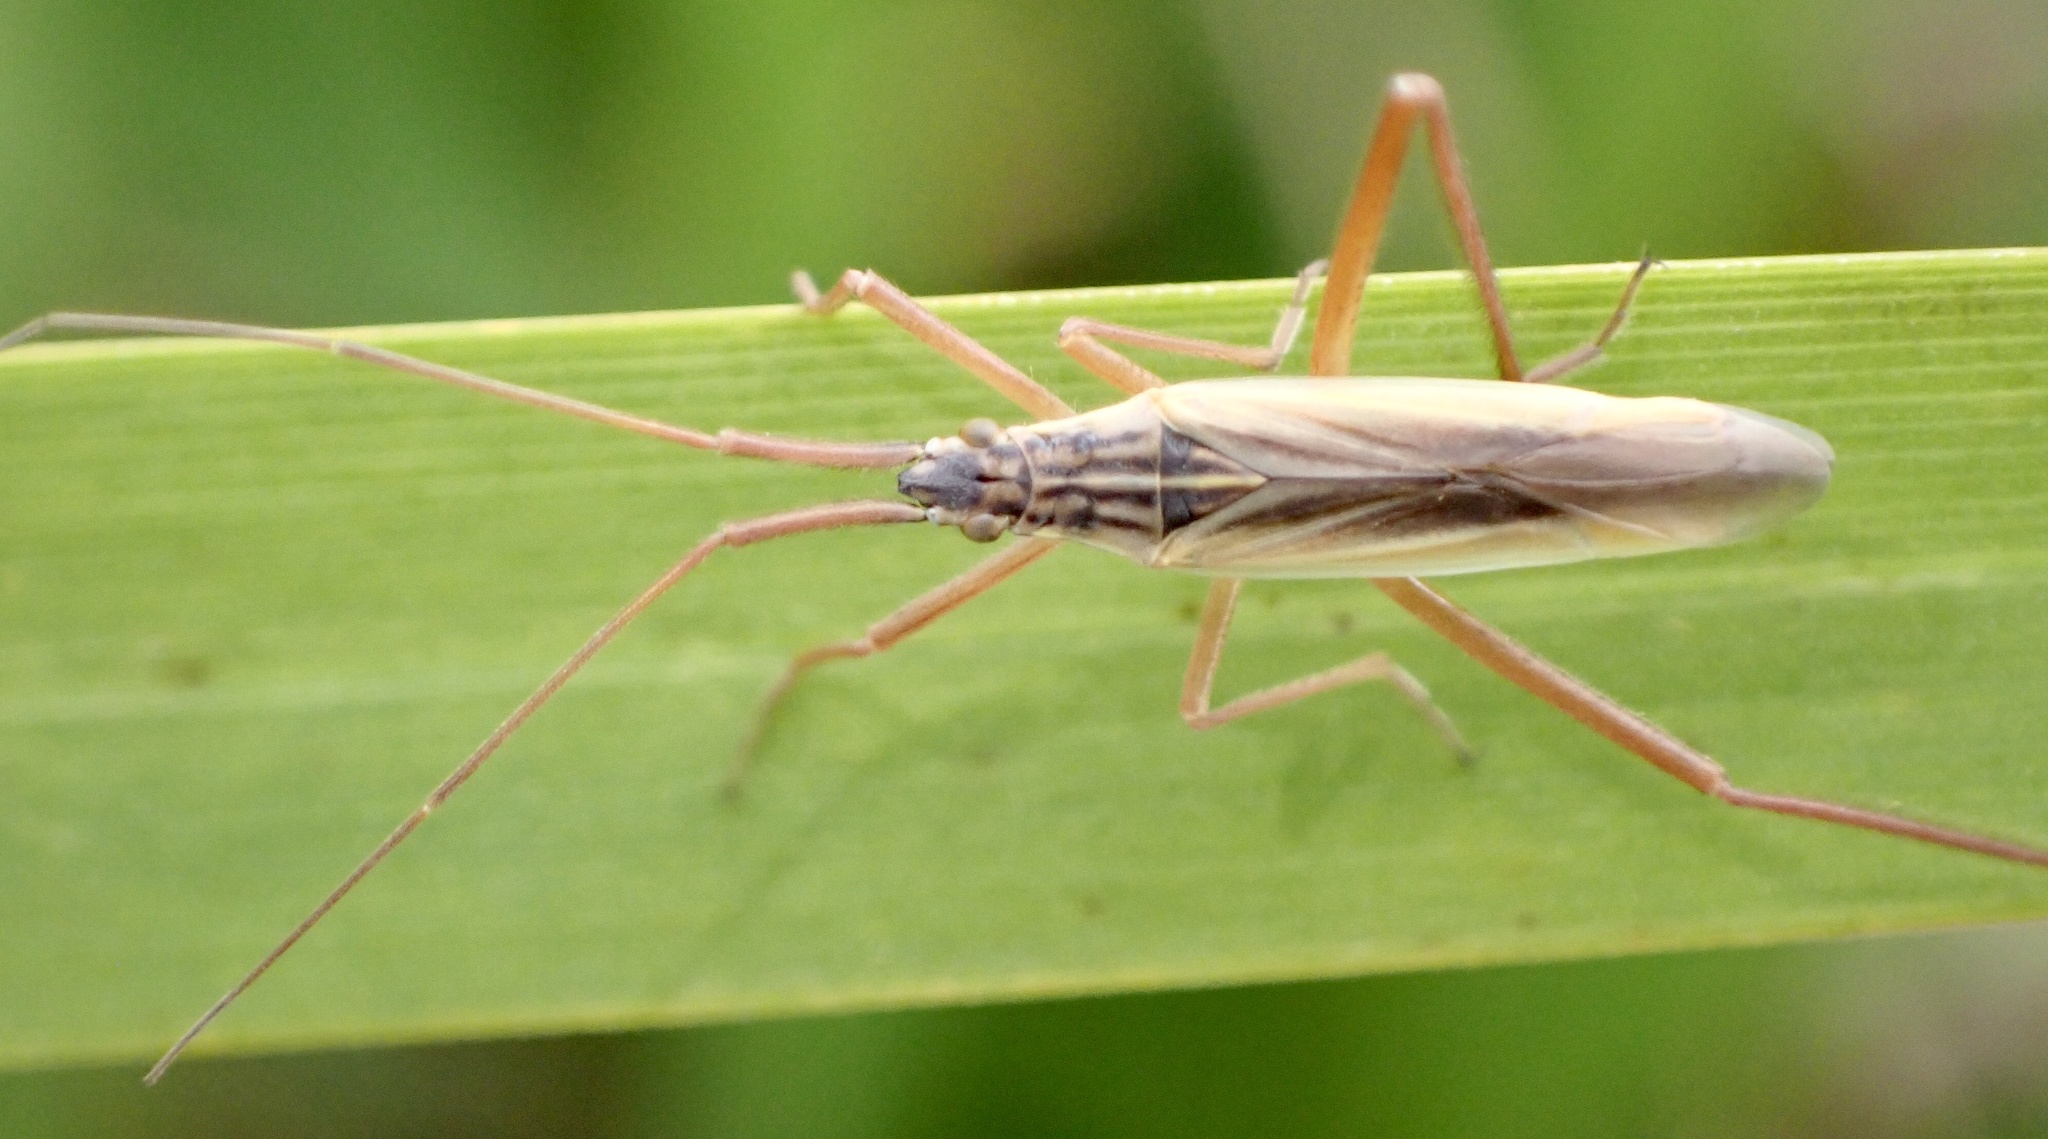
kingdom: Animalia
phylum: Arthropoda
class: Insecta
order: Hemiptera
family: Miridae
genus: Notostira
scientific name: Notostira elongata
